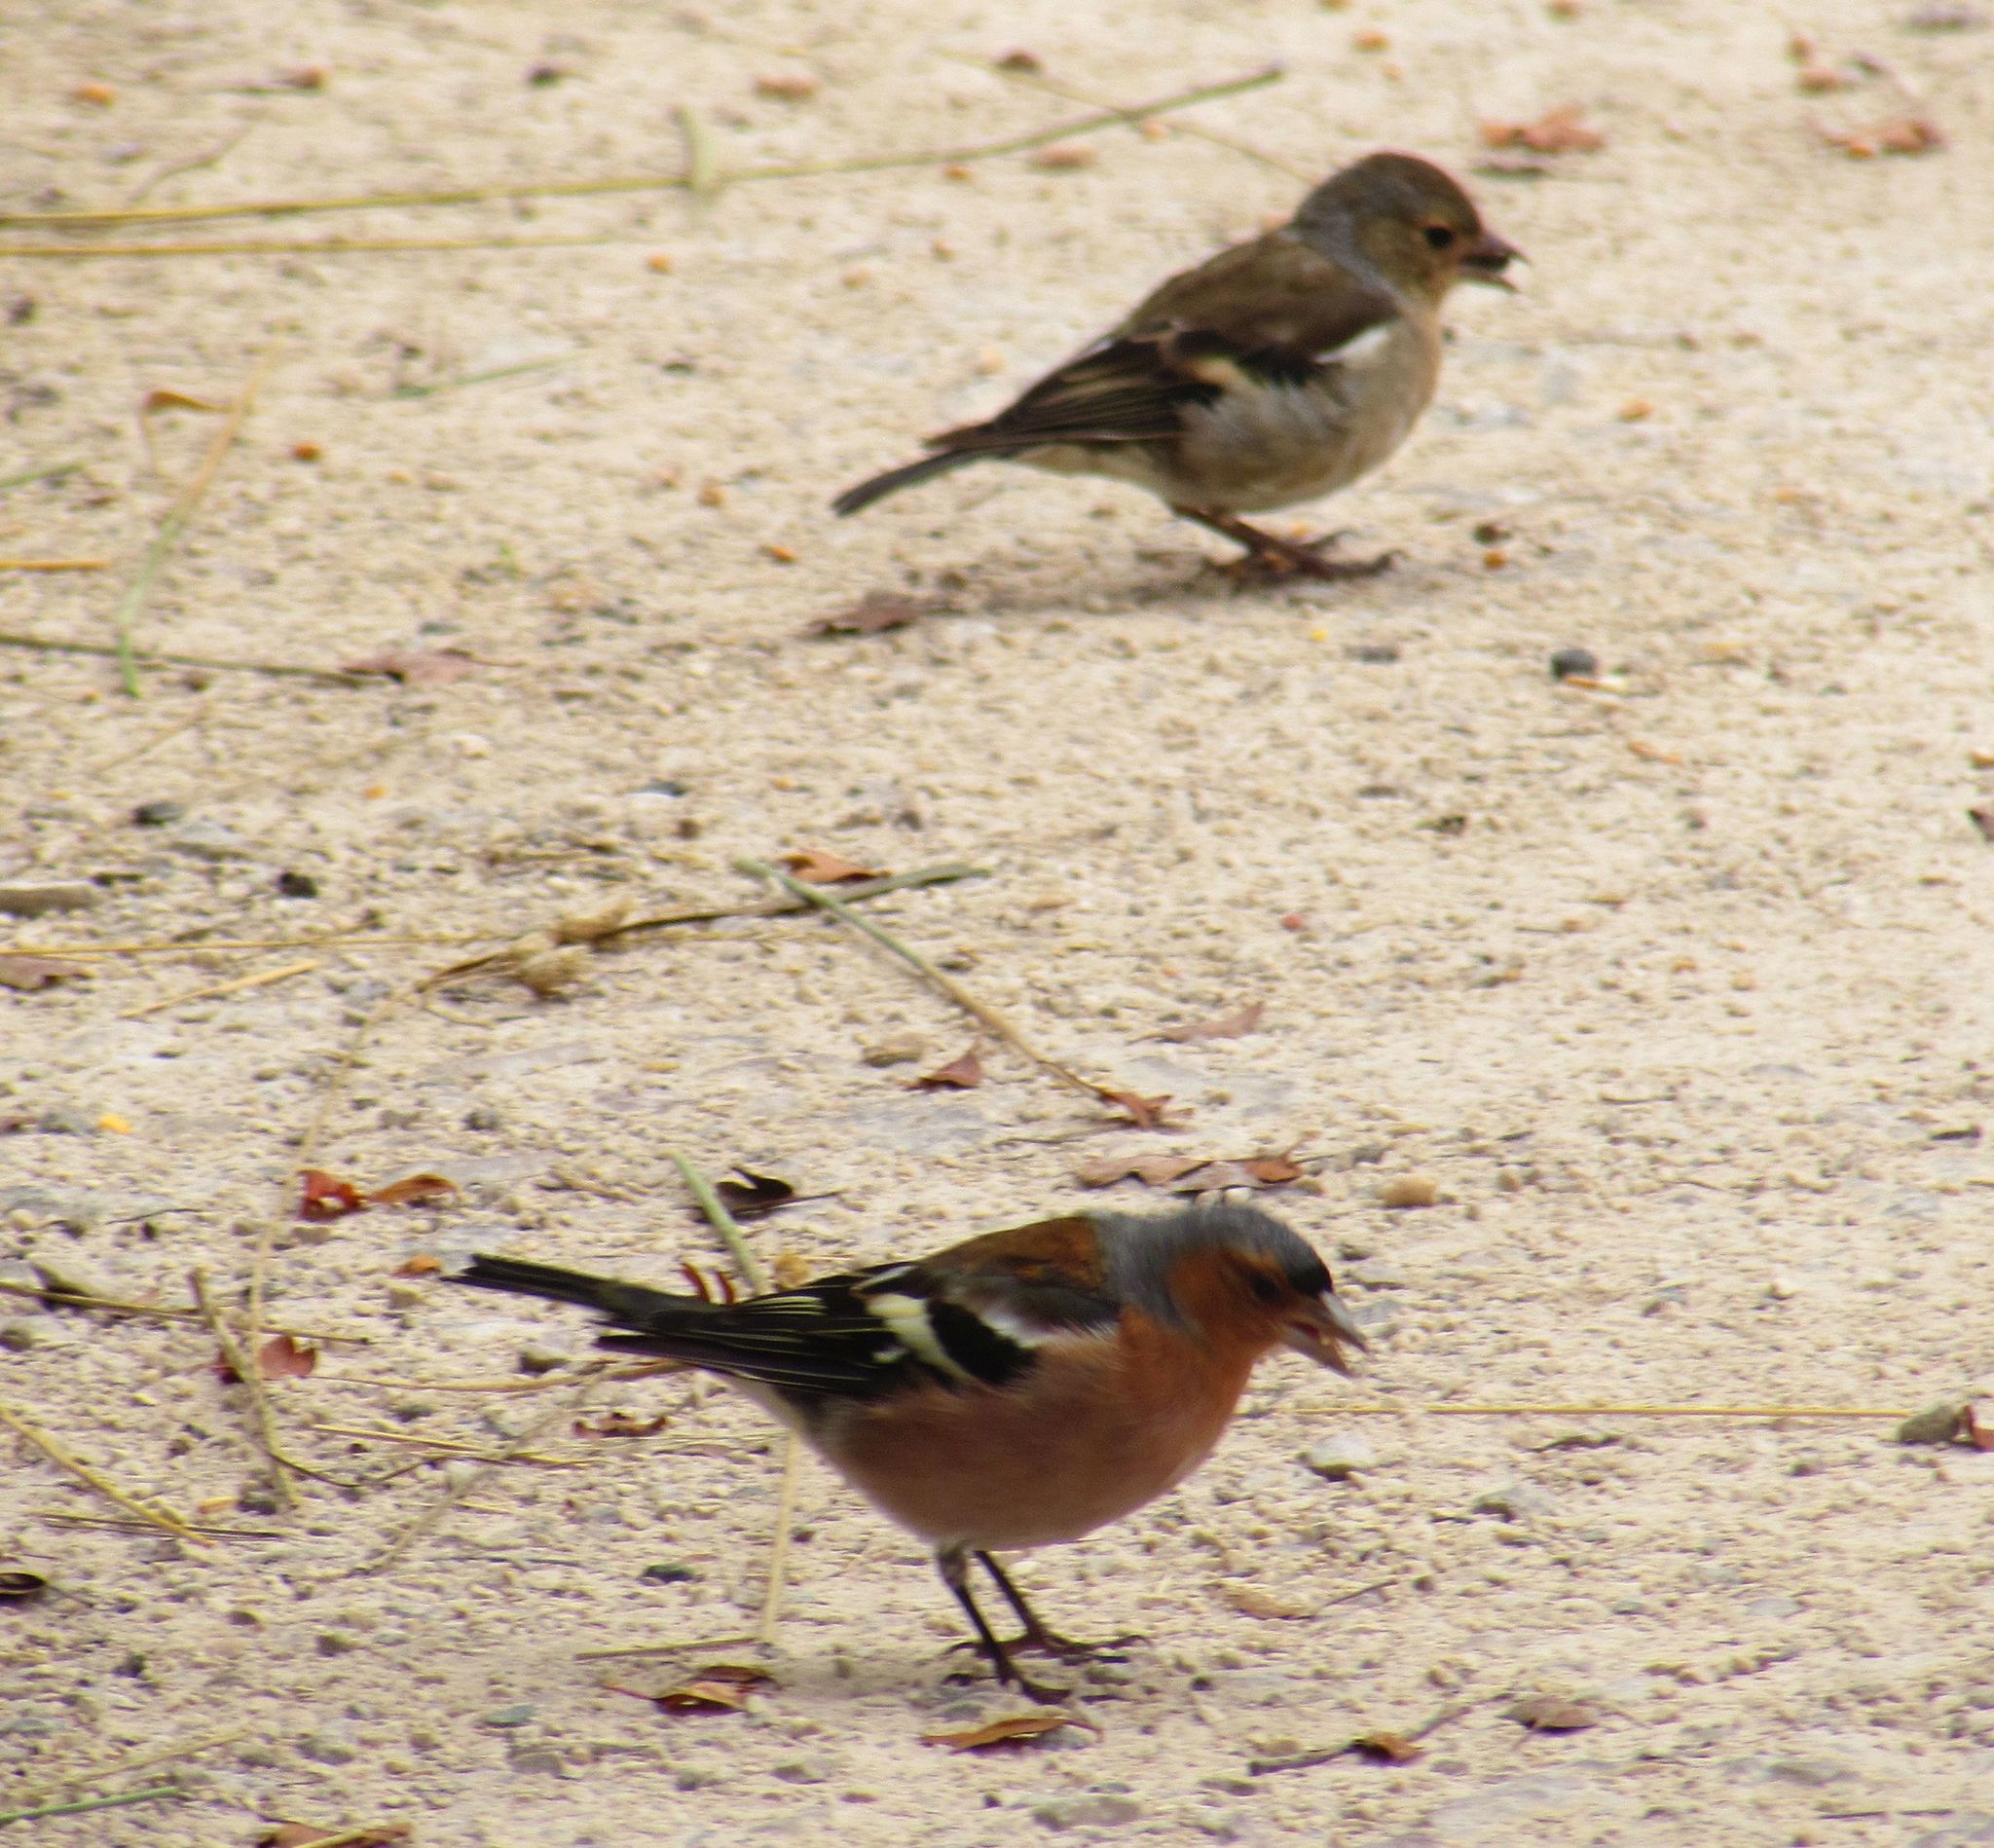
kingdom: Animalia
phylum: Chordata
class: Aves
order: Passeriformes
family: Fringillidae
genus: Fringilla
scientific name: Fringilla coelebs
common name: Common chaffinch
